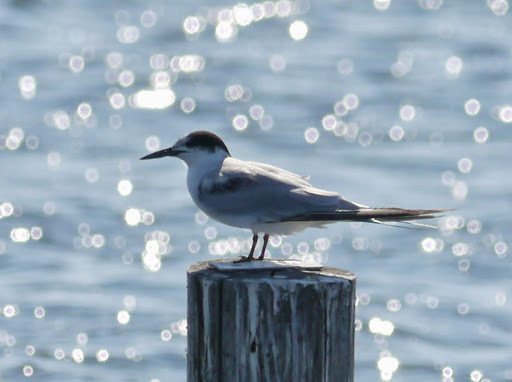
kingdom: Animalia
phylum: Chordata
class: Aves
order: Charadriiformes
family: Laridae
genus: Sterna
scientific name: Sterna hirundo
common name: Common tern
